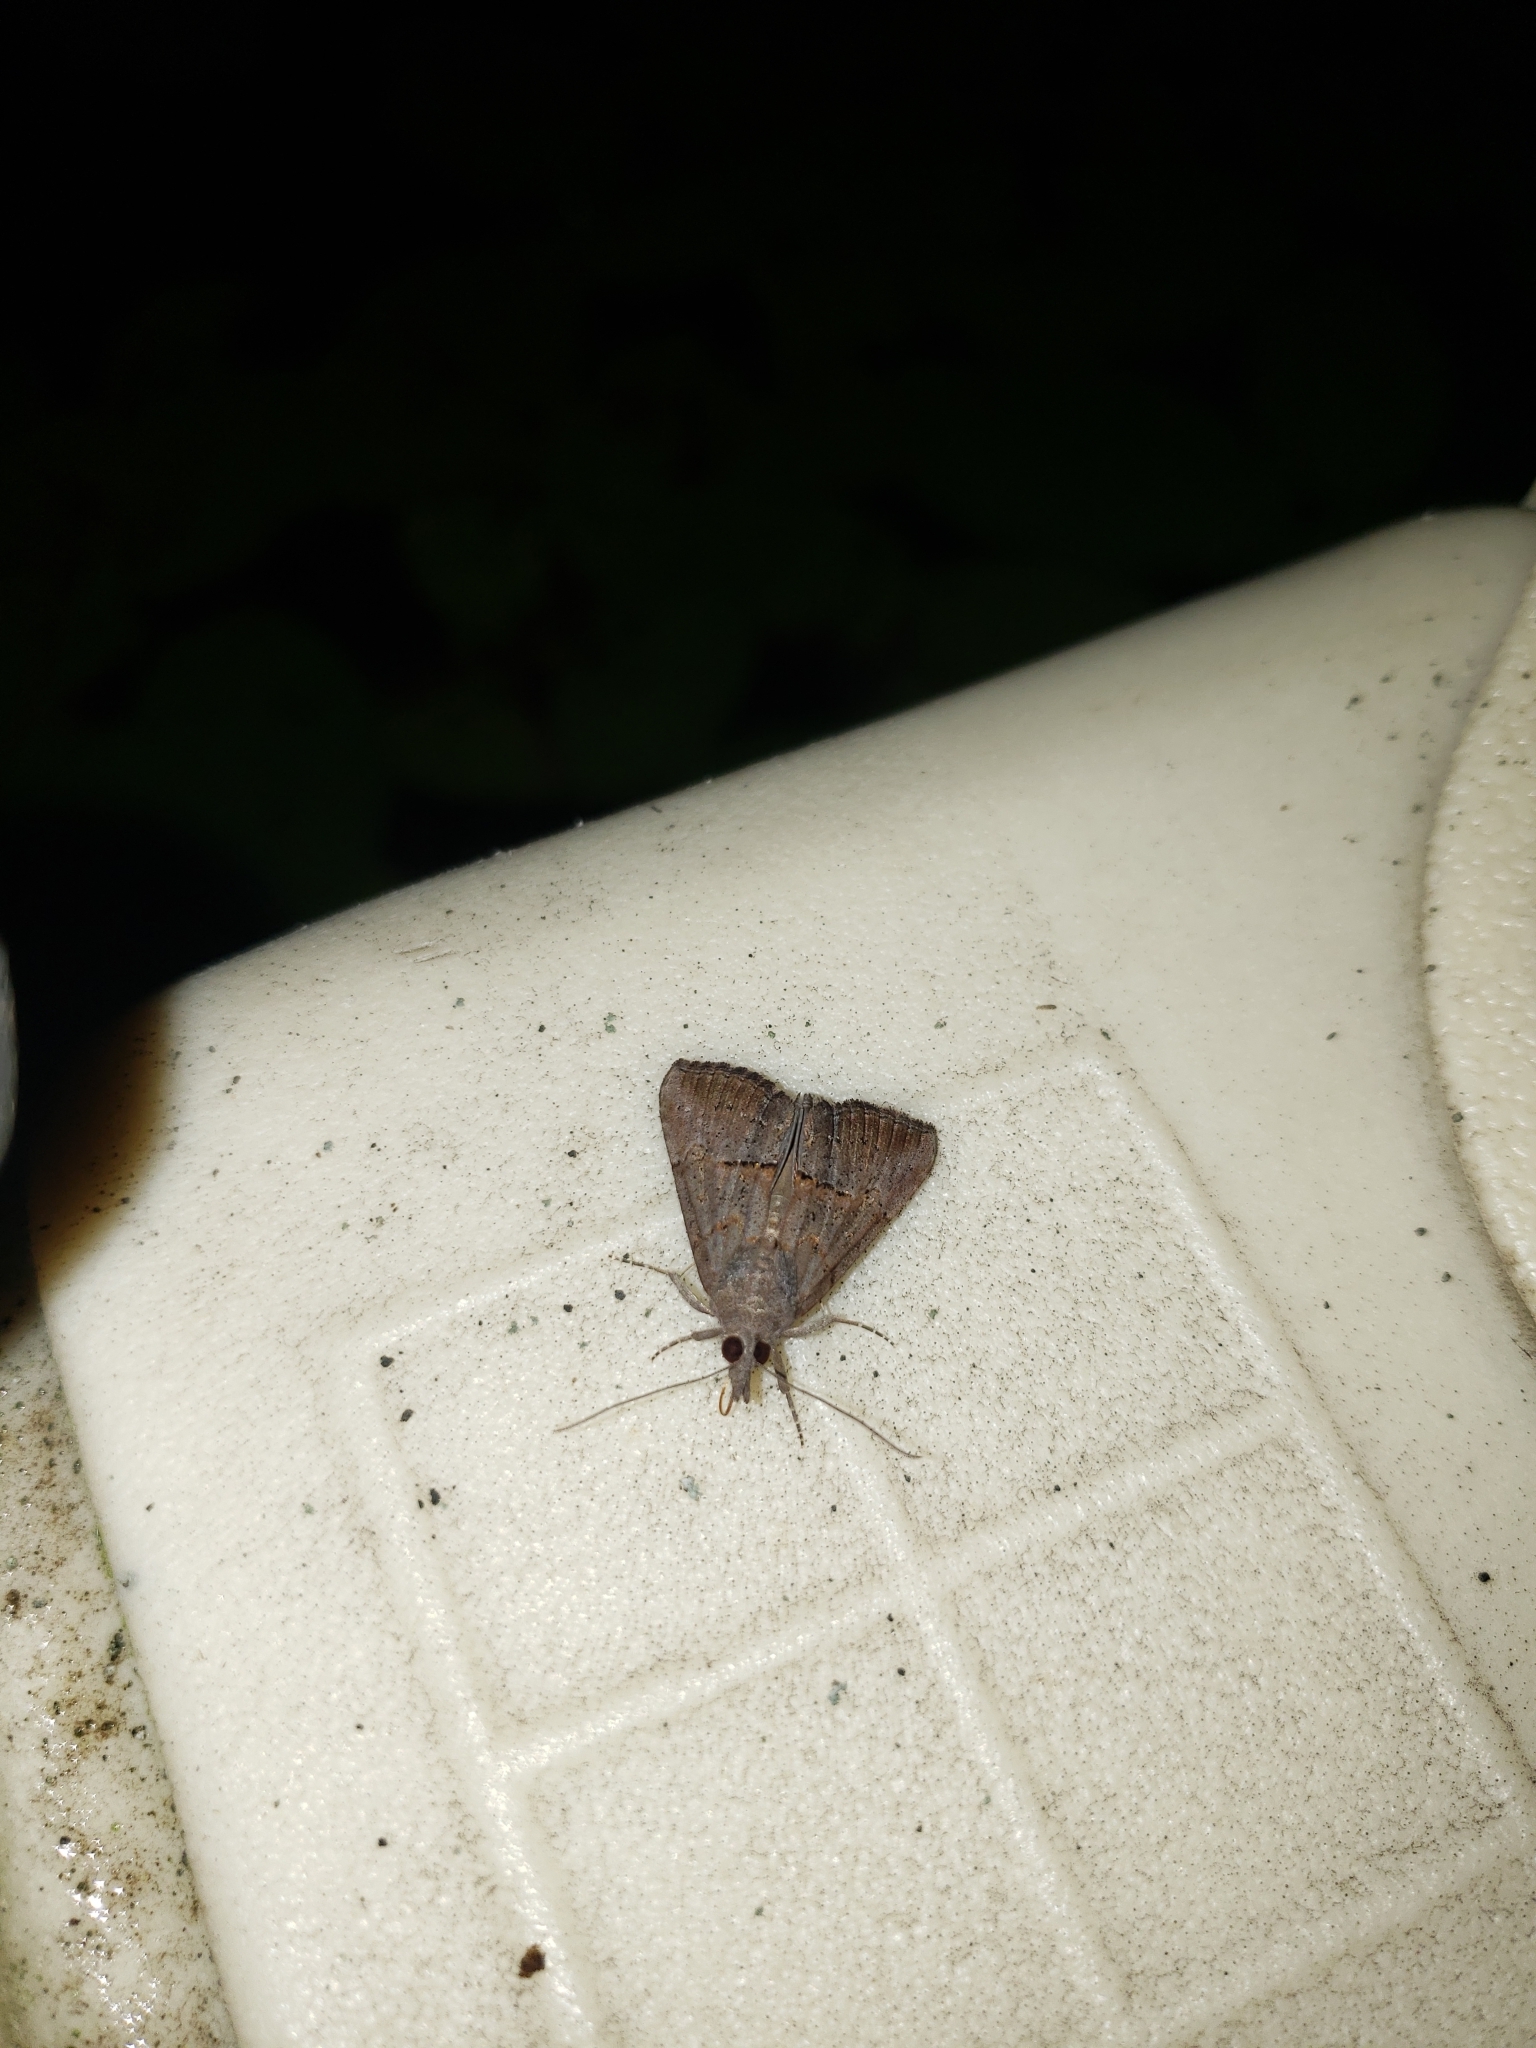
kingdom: Animalia
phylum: Arthropoda
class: Insecta
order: Lepidoptera
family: Erebidae
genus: Hypena
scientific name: Hypena scabra
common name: Green cloverworm
